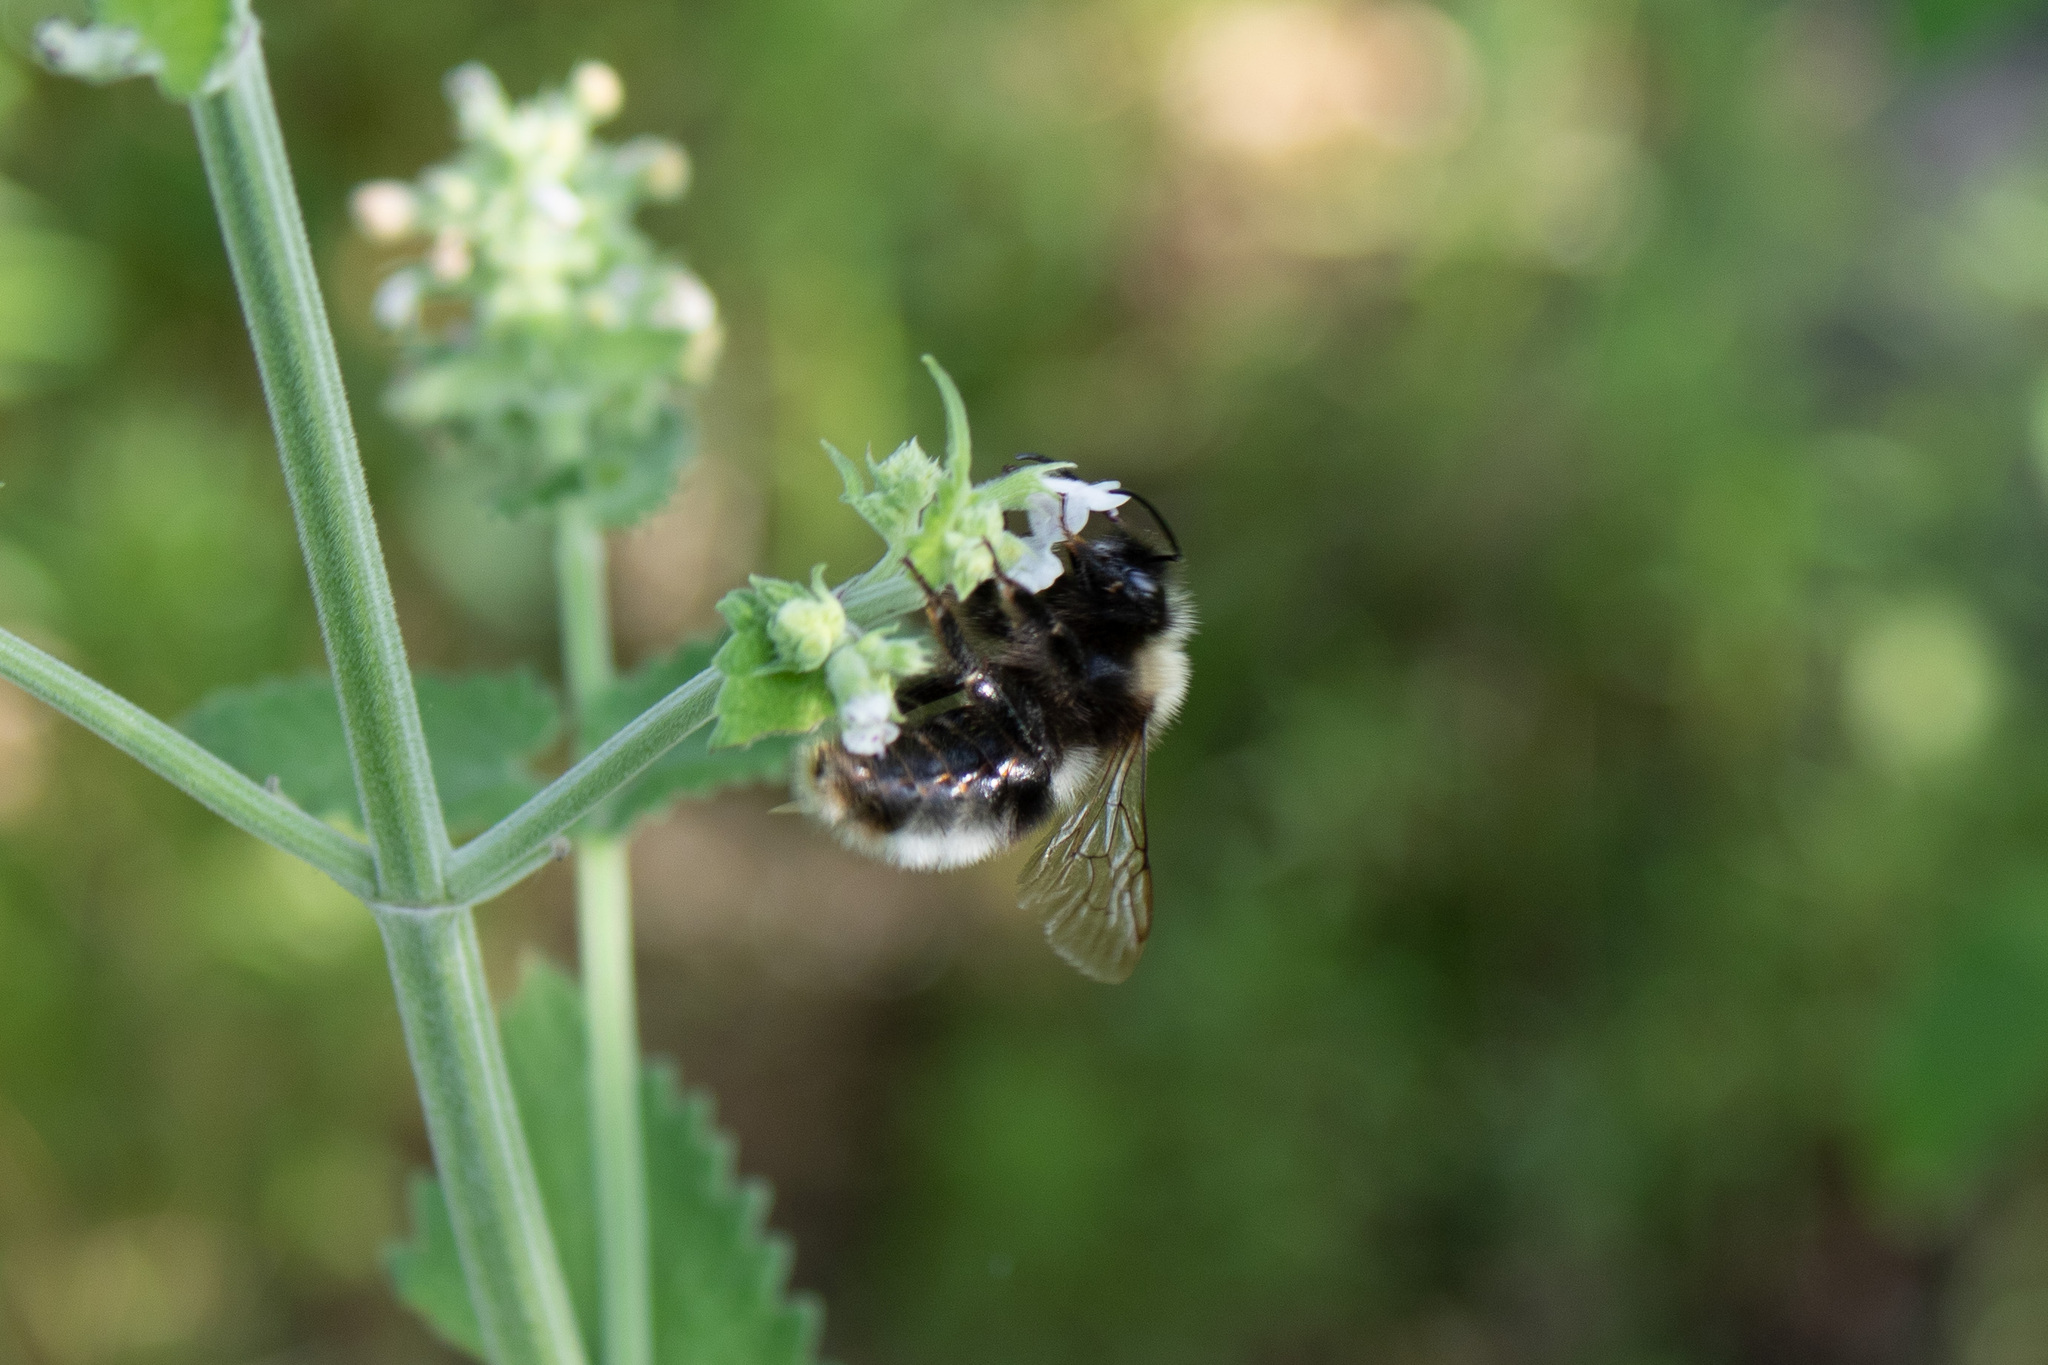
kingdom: Animalia
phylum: Arthropoda
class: Insecta
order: Hymenoptera
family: Apidae
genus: Bombus
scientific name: Bombus
